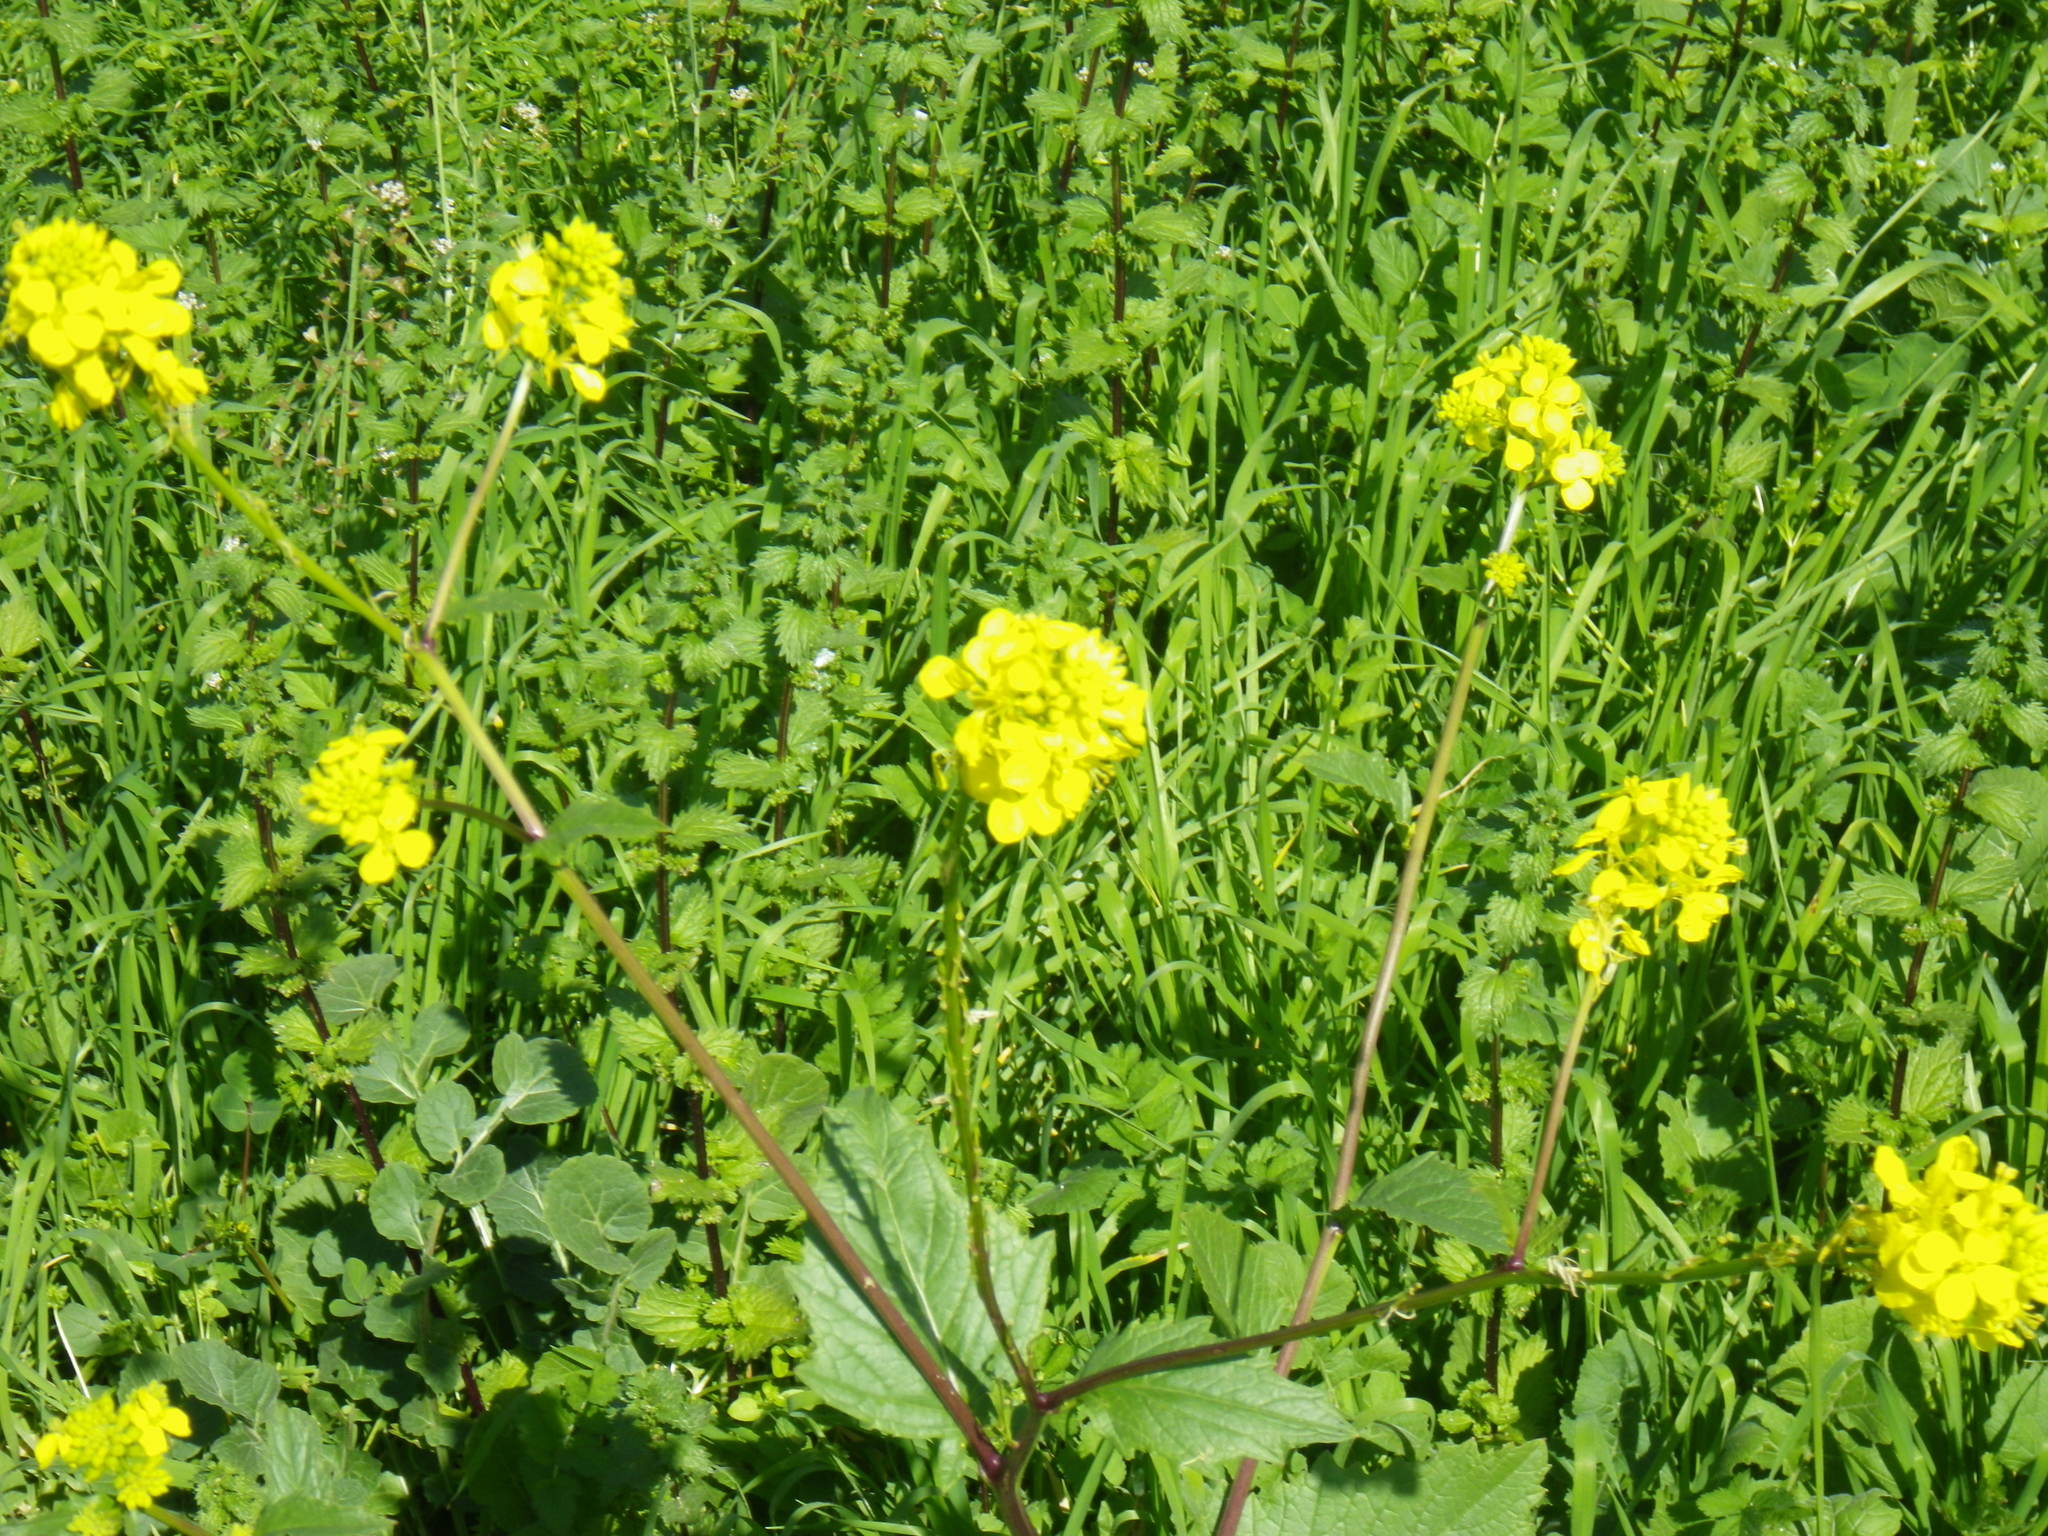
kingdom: Plantae
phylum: Tracheophyta
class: Magnoliopsida
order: Brassicales
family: Brassicaceae
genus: Brassica
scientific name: Brassica rapa
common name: Field mustard
